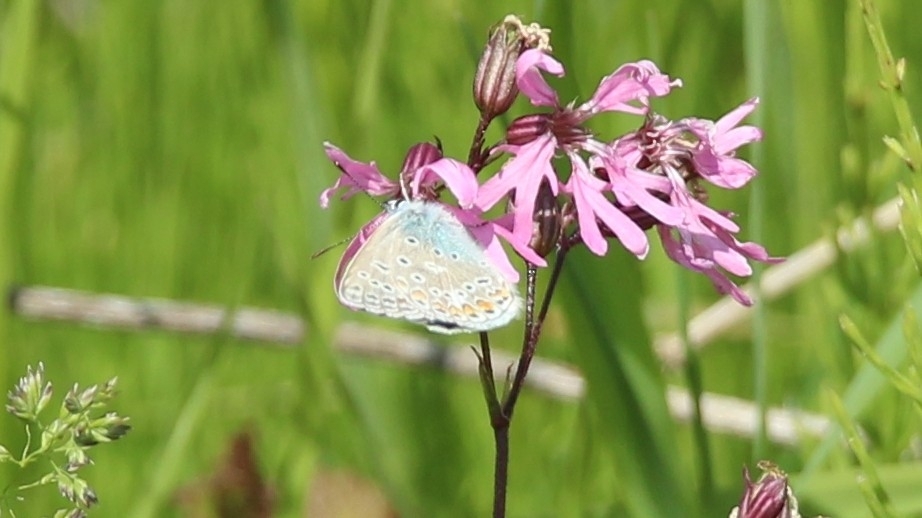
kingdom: Animalia
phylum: Arthropoda
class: Insecta
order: Lepidoptera
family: Lycaenidae
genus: Polyommatus
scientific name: Polyommatus icarus
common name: Common blue
